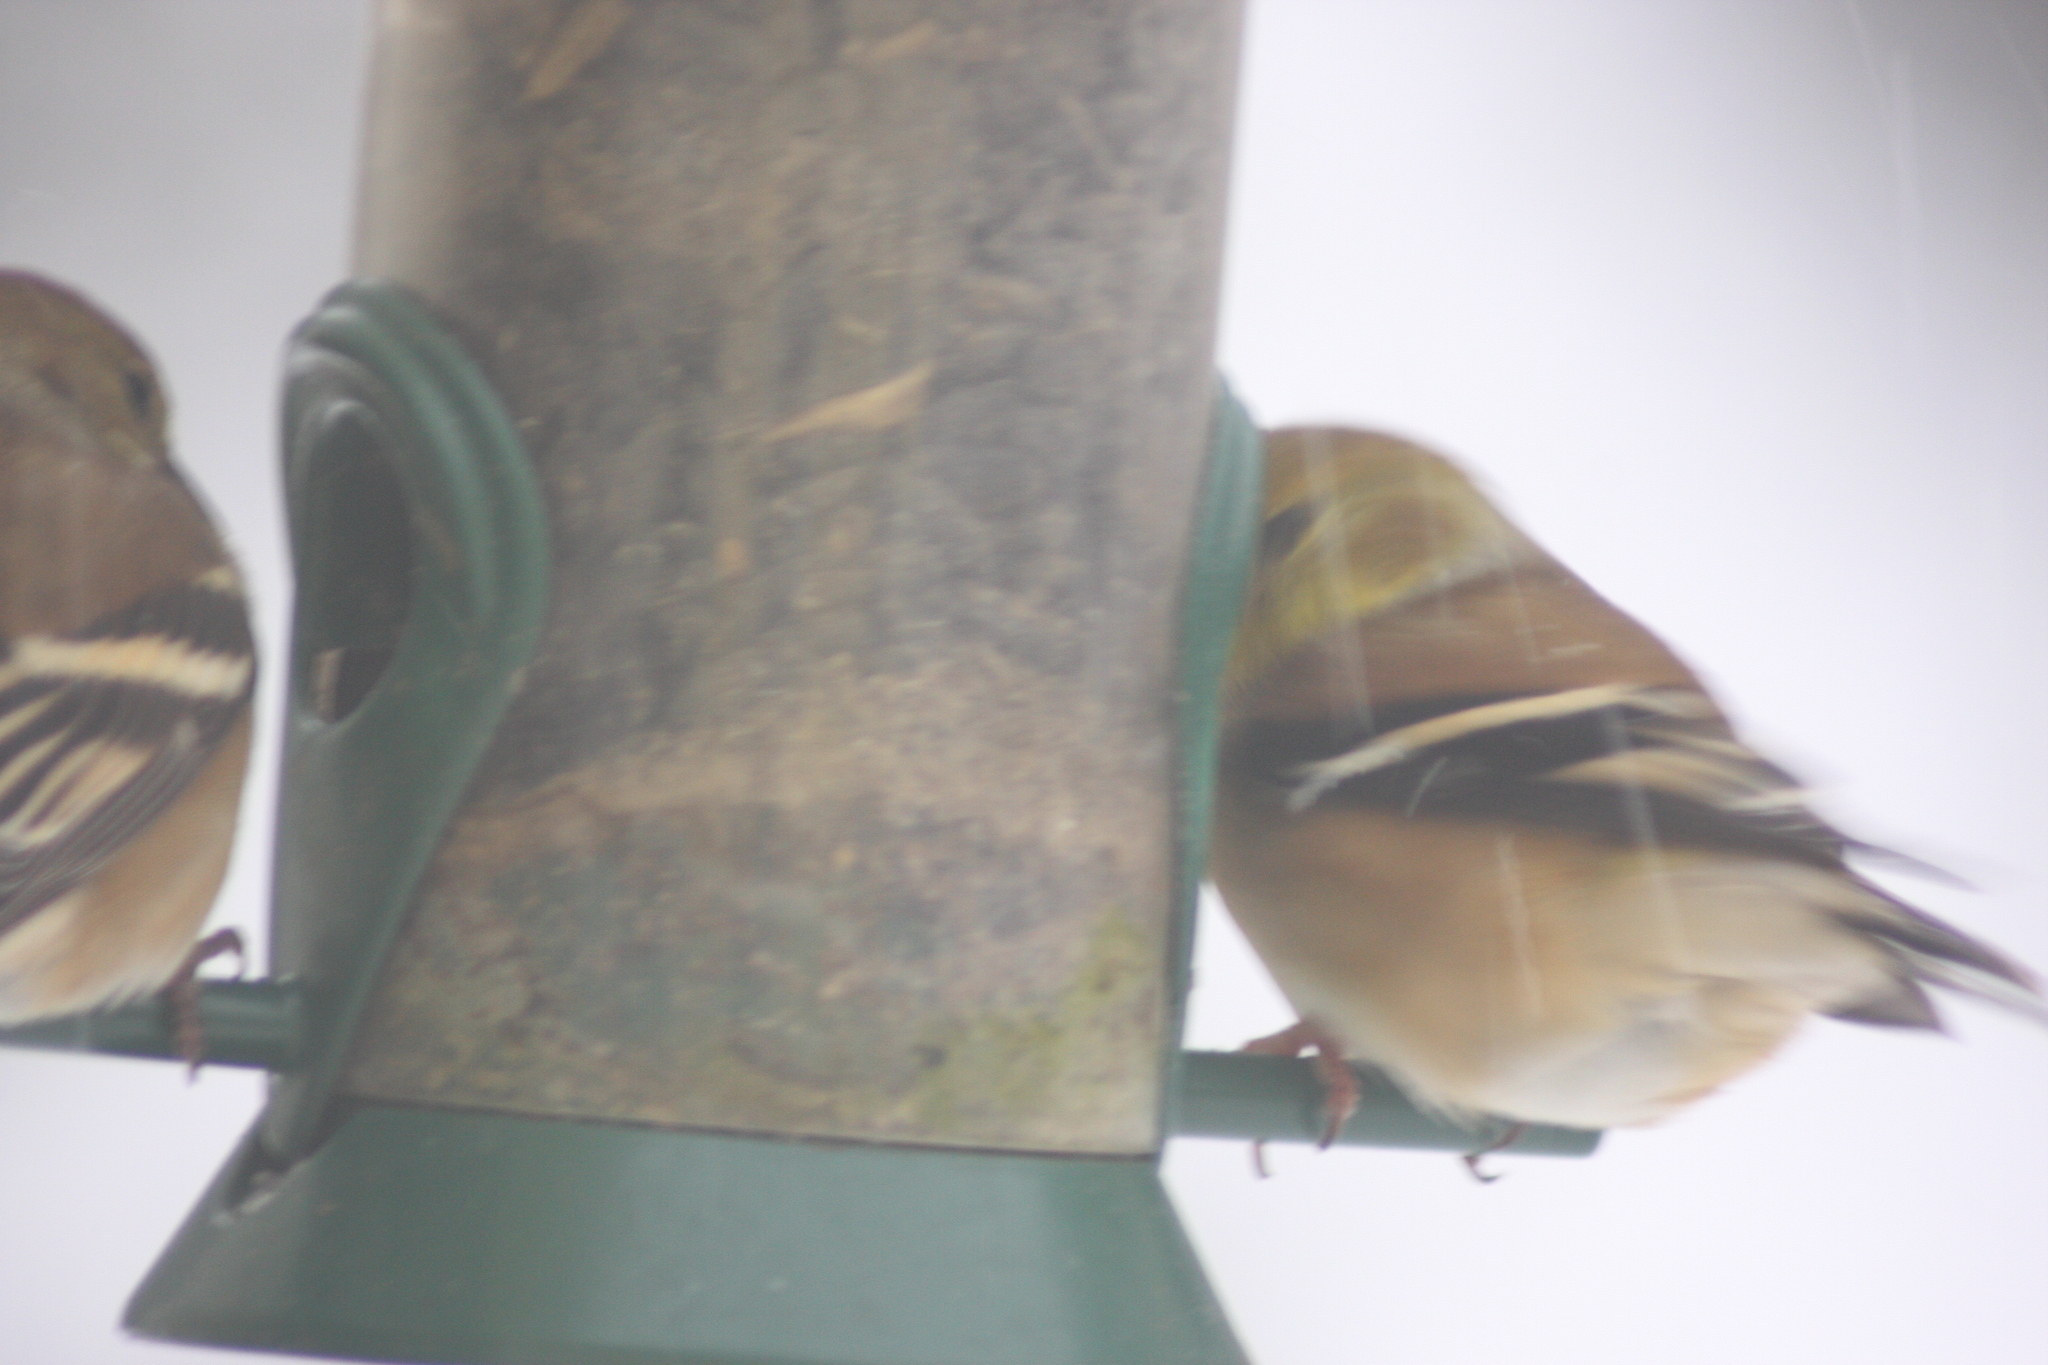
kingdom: Animalia
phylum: Chordata
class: Aves
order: Passeriformes
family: Fringillidae
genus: Spinus
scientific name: Spinus tristis
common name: American goldfinch
